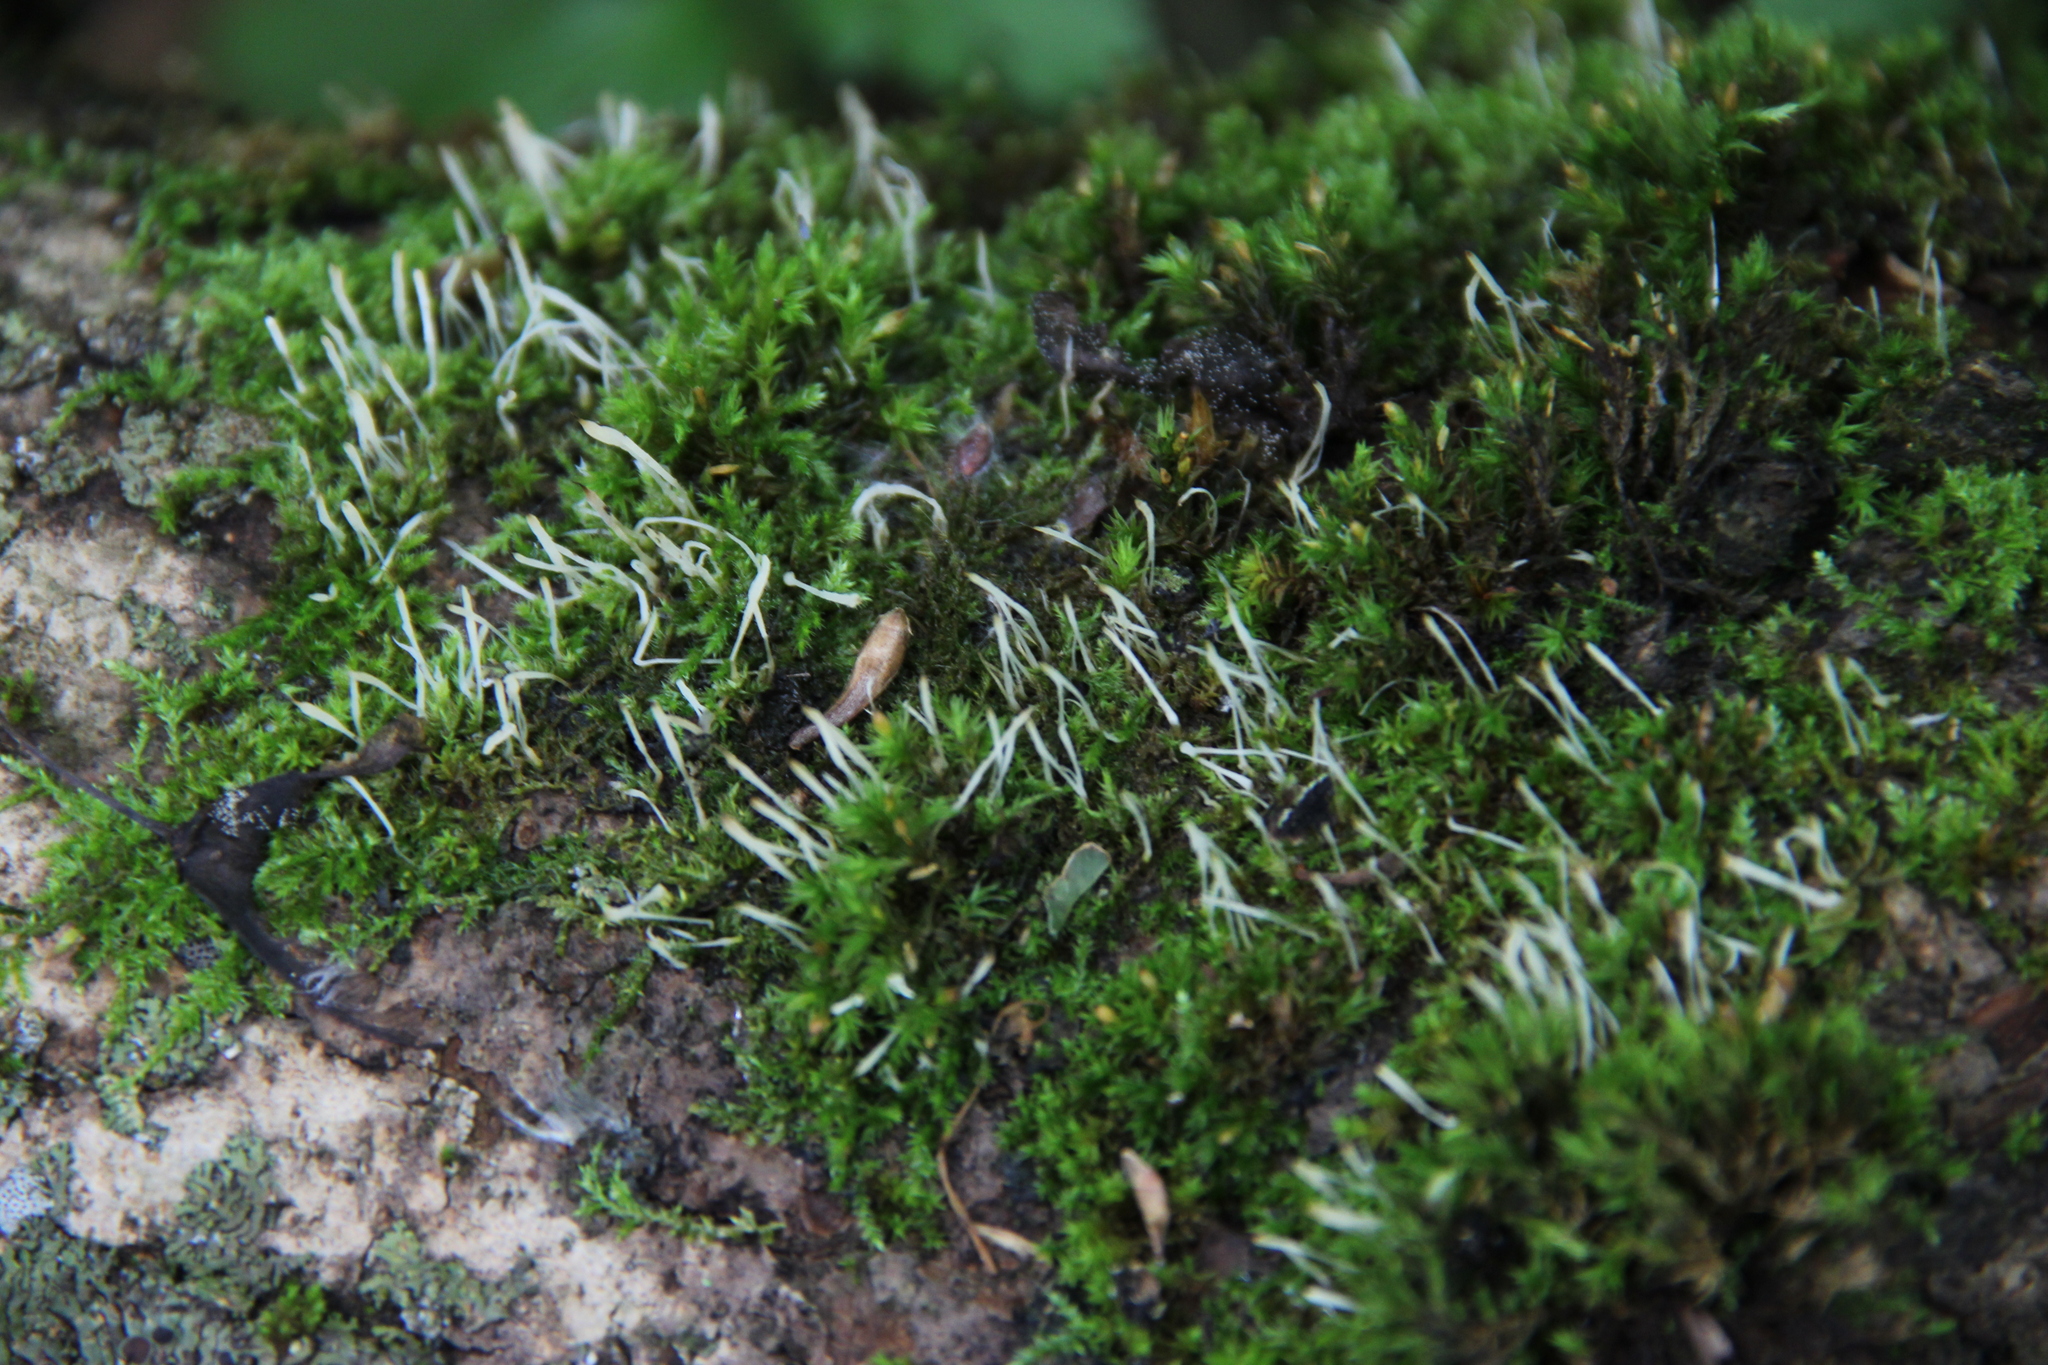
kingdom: Fungi
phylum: Basidiomycota
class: Pucciniomycetes
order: Platygloeales
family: Eocronartiaceae
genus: Eocronartium
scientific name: Eocronartium muscicola
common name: Moss rust
